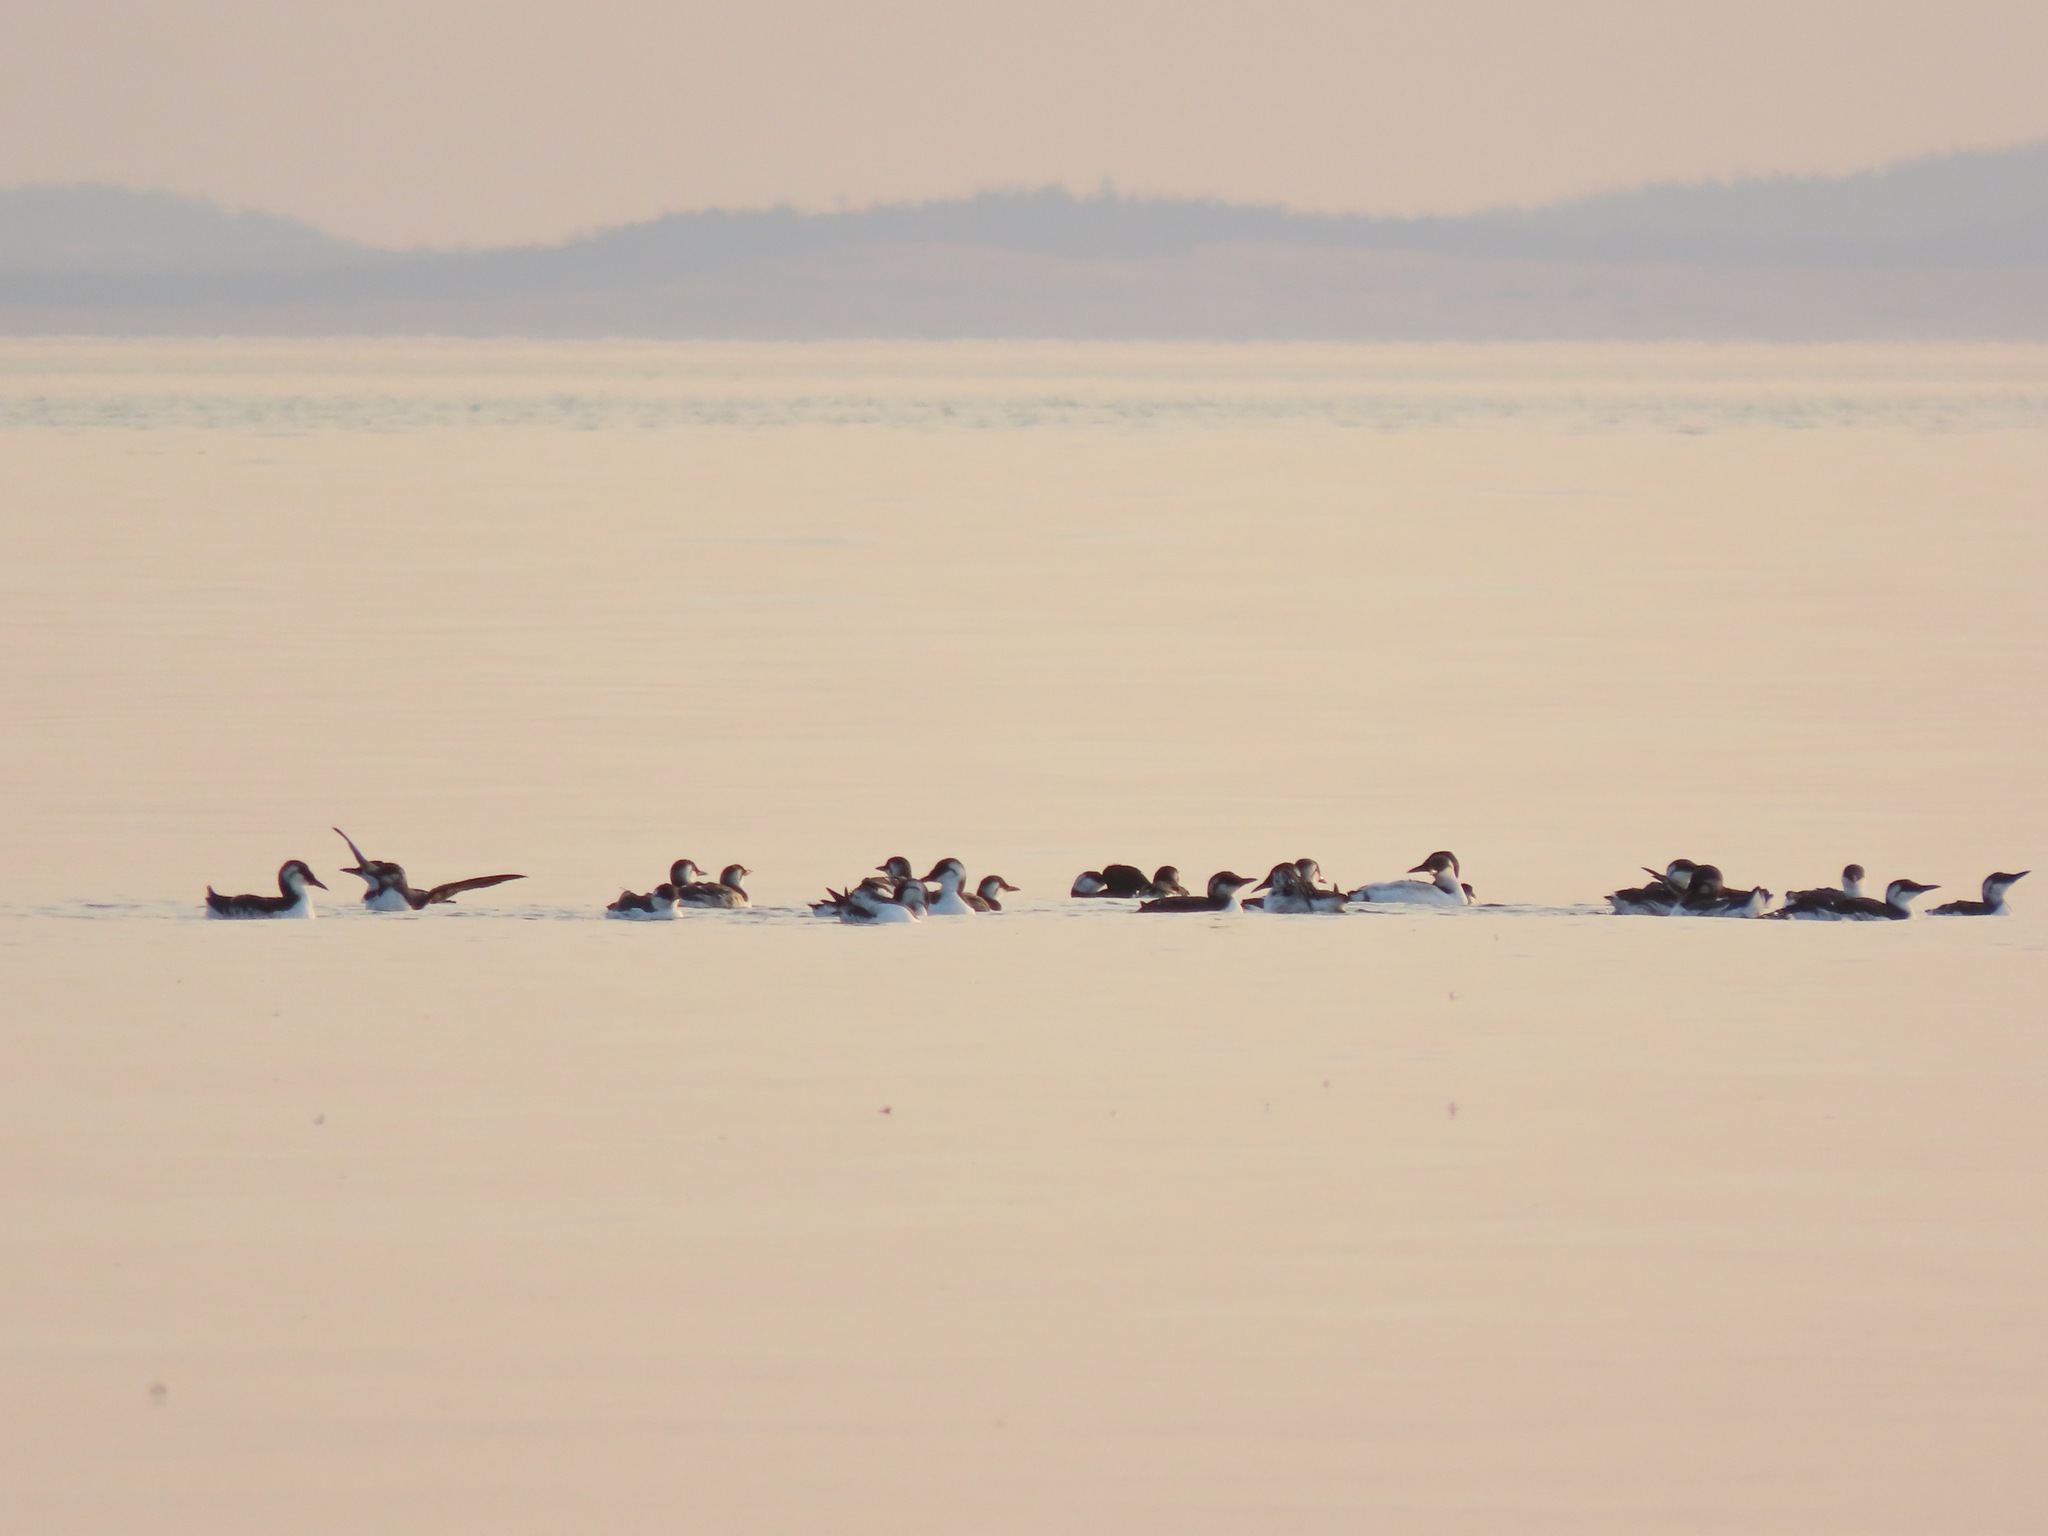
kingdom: Animalia
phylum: Chordata
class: Aves
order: Charadriiformes
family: Alcidae
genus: Uria
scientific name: Uria aalge
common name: Common murre
